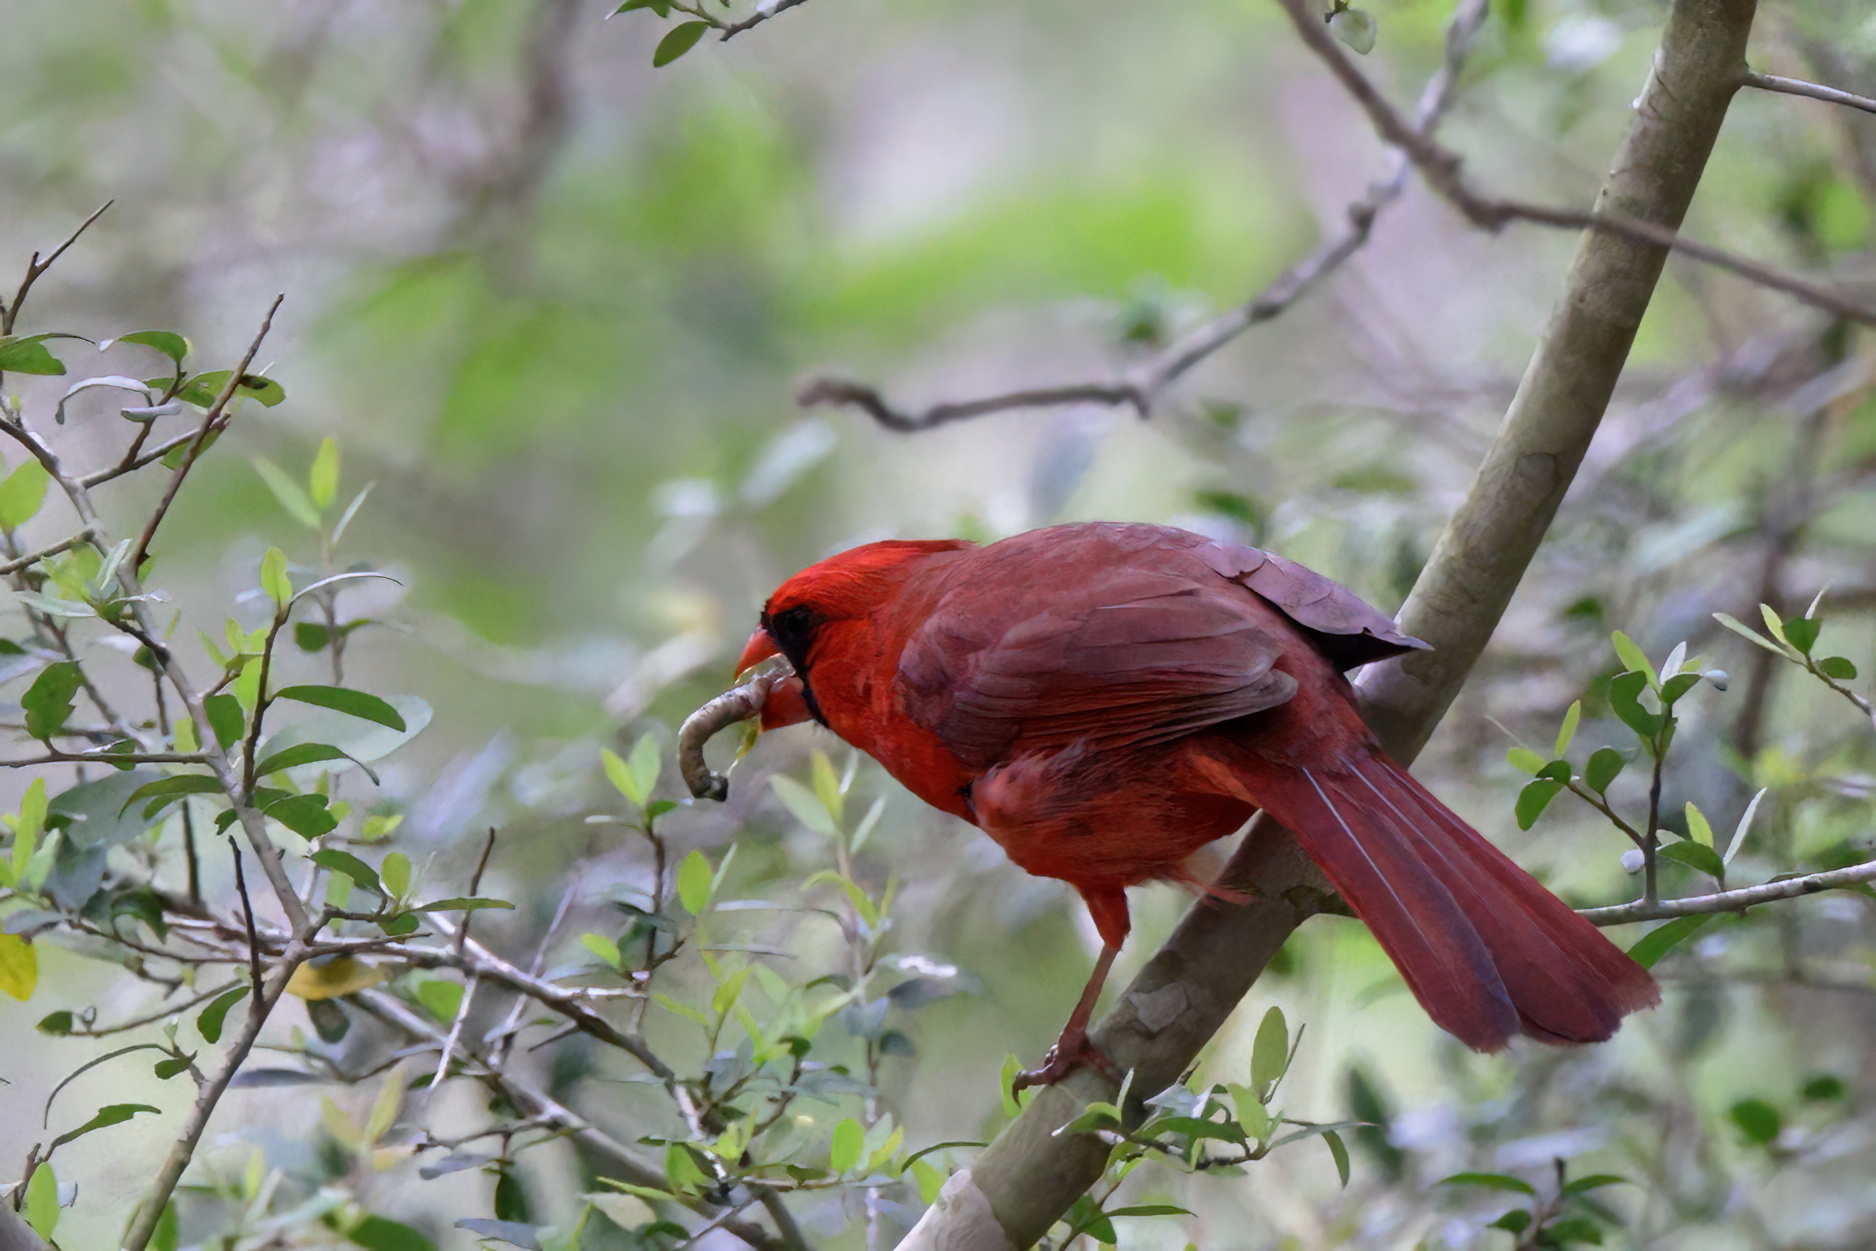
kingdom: Animalia
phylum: Chordata
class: Aves
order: Passeriformes
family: Cardinalidae
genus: Cardinalis
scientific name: Cardinalis cardinalis
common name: Northern cardinal
